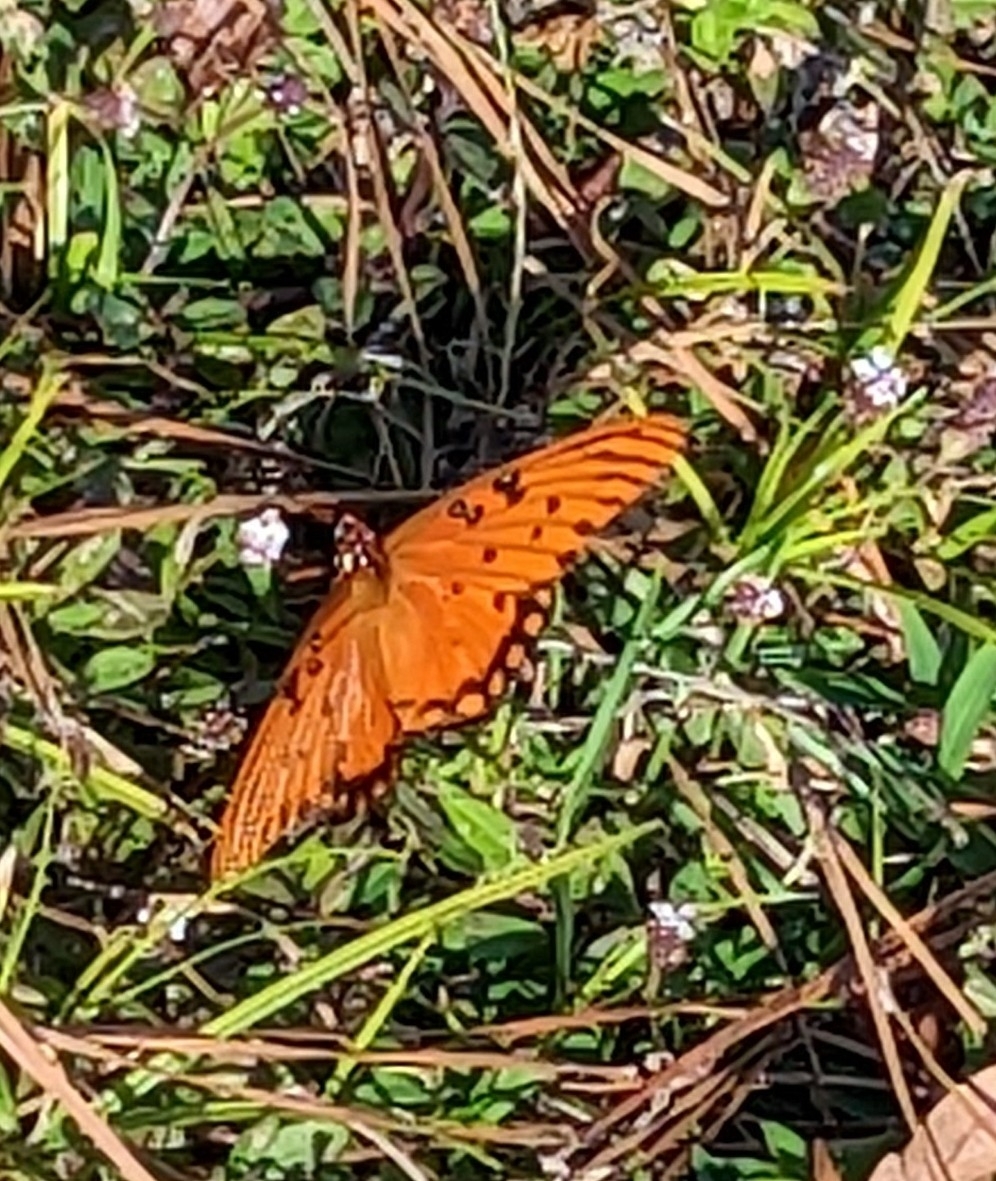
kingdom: Animalia
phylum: Arthropoda
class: Insecta
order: Lepidoptera
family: Nymphalidae
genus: Dione
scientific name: Dione vanillae
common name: Gulf fritillary
